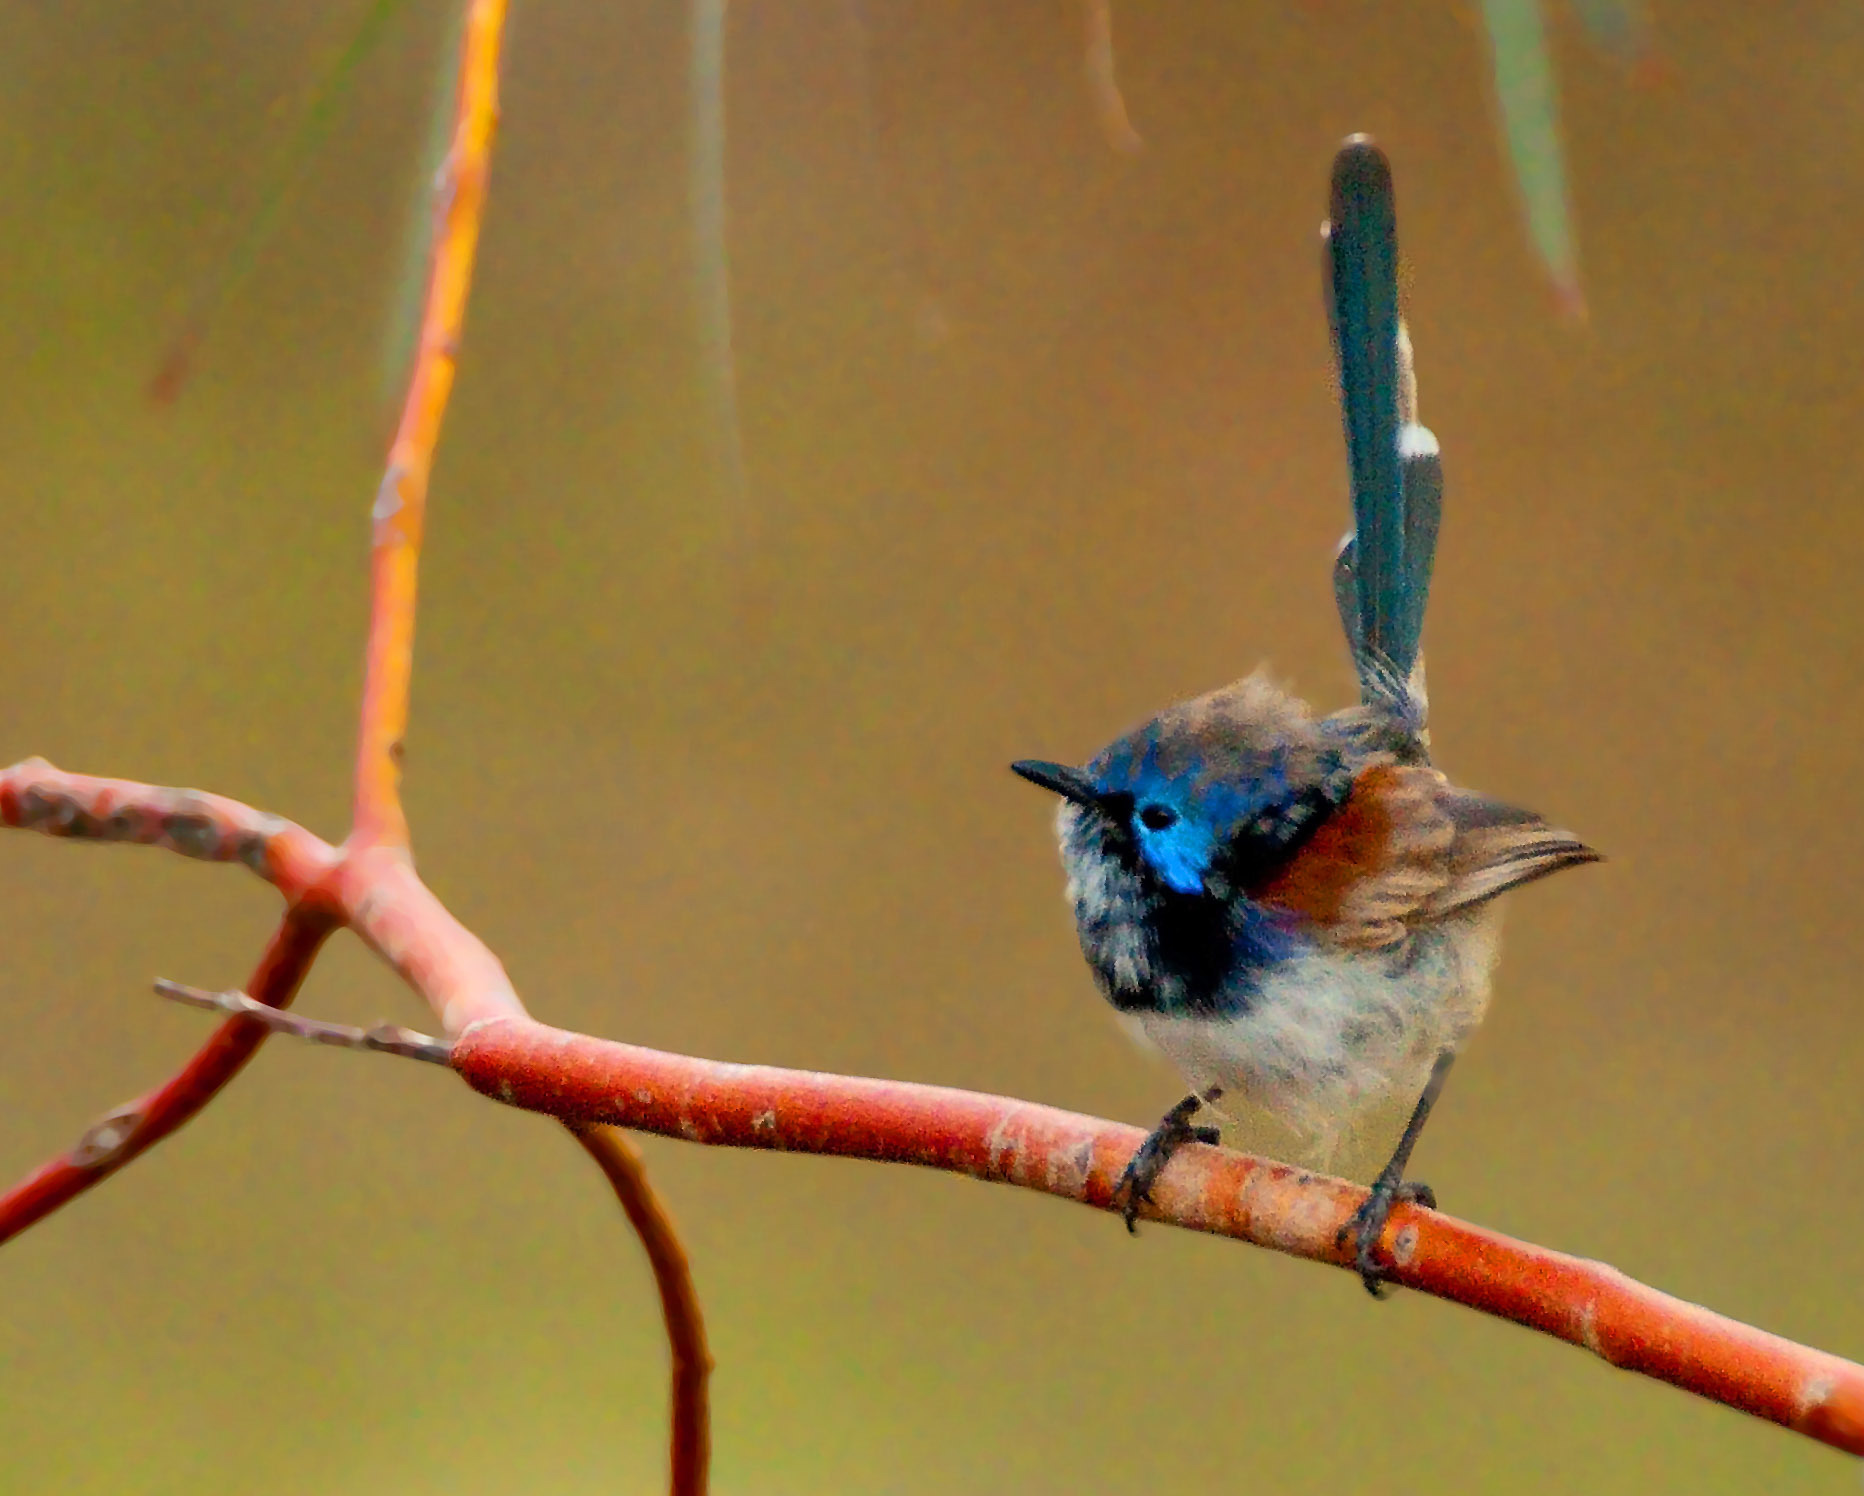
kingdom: Animalia
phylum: Chordata
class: Aves
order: Passeriformes
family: Maluridae
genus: Malurus
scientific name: Malurus assimilis
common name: Purple-backed fairywren
